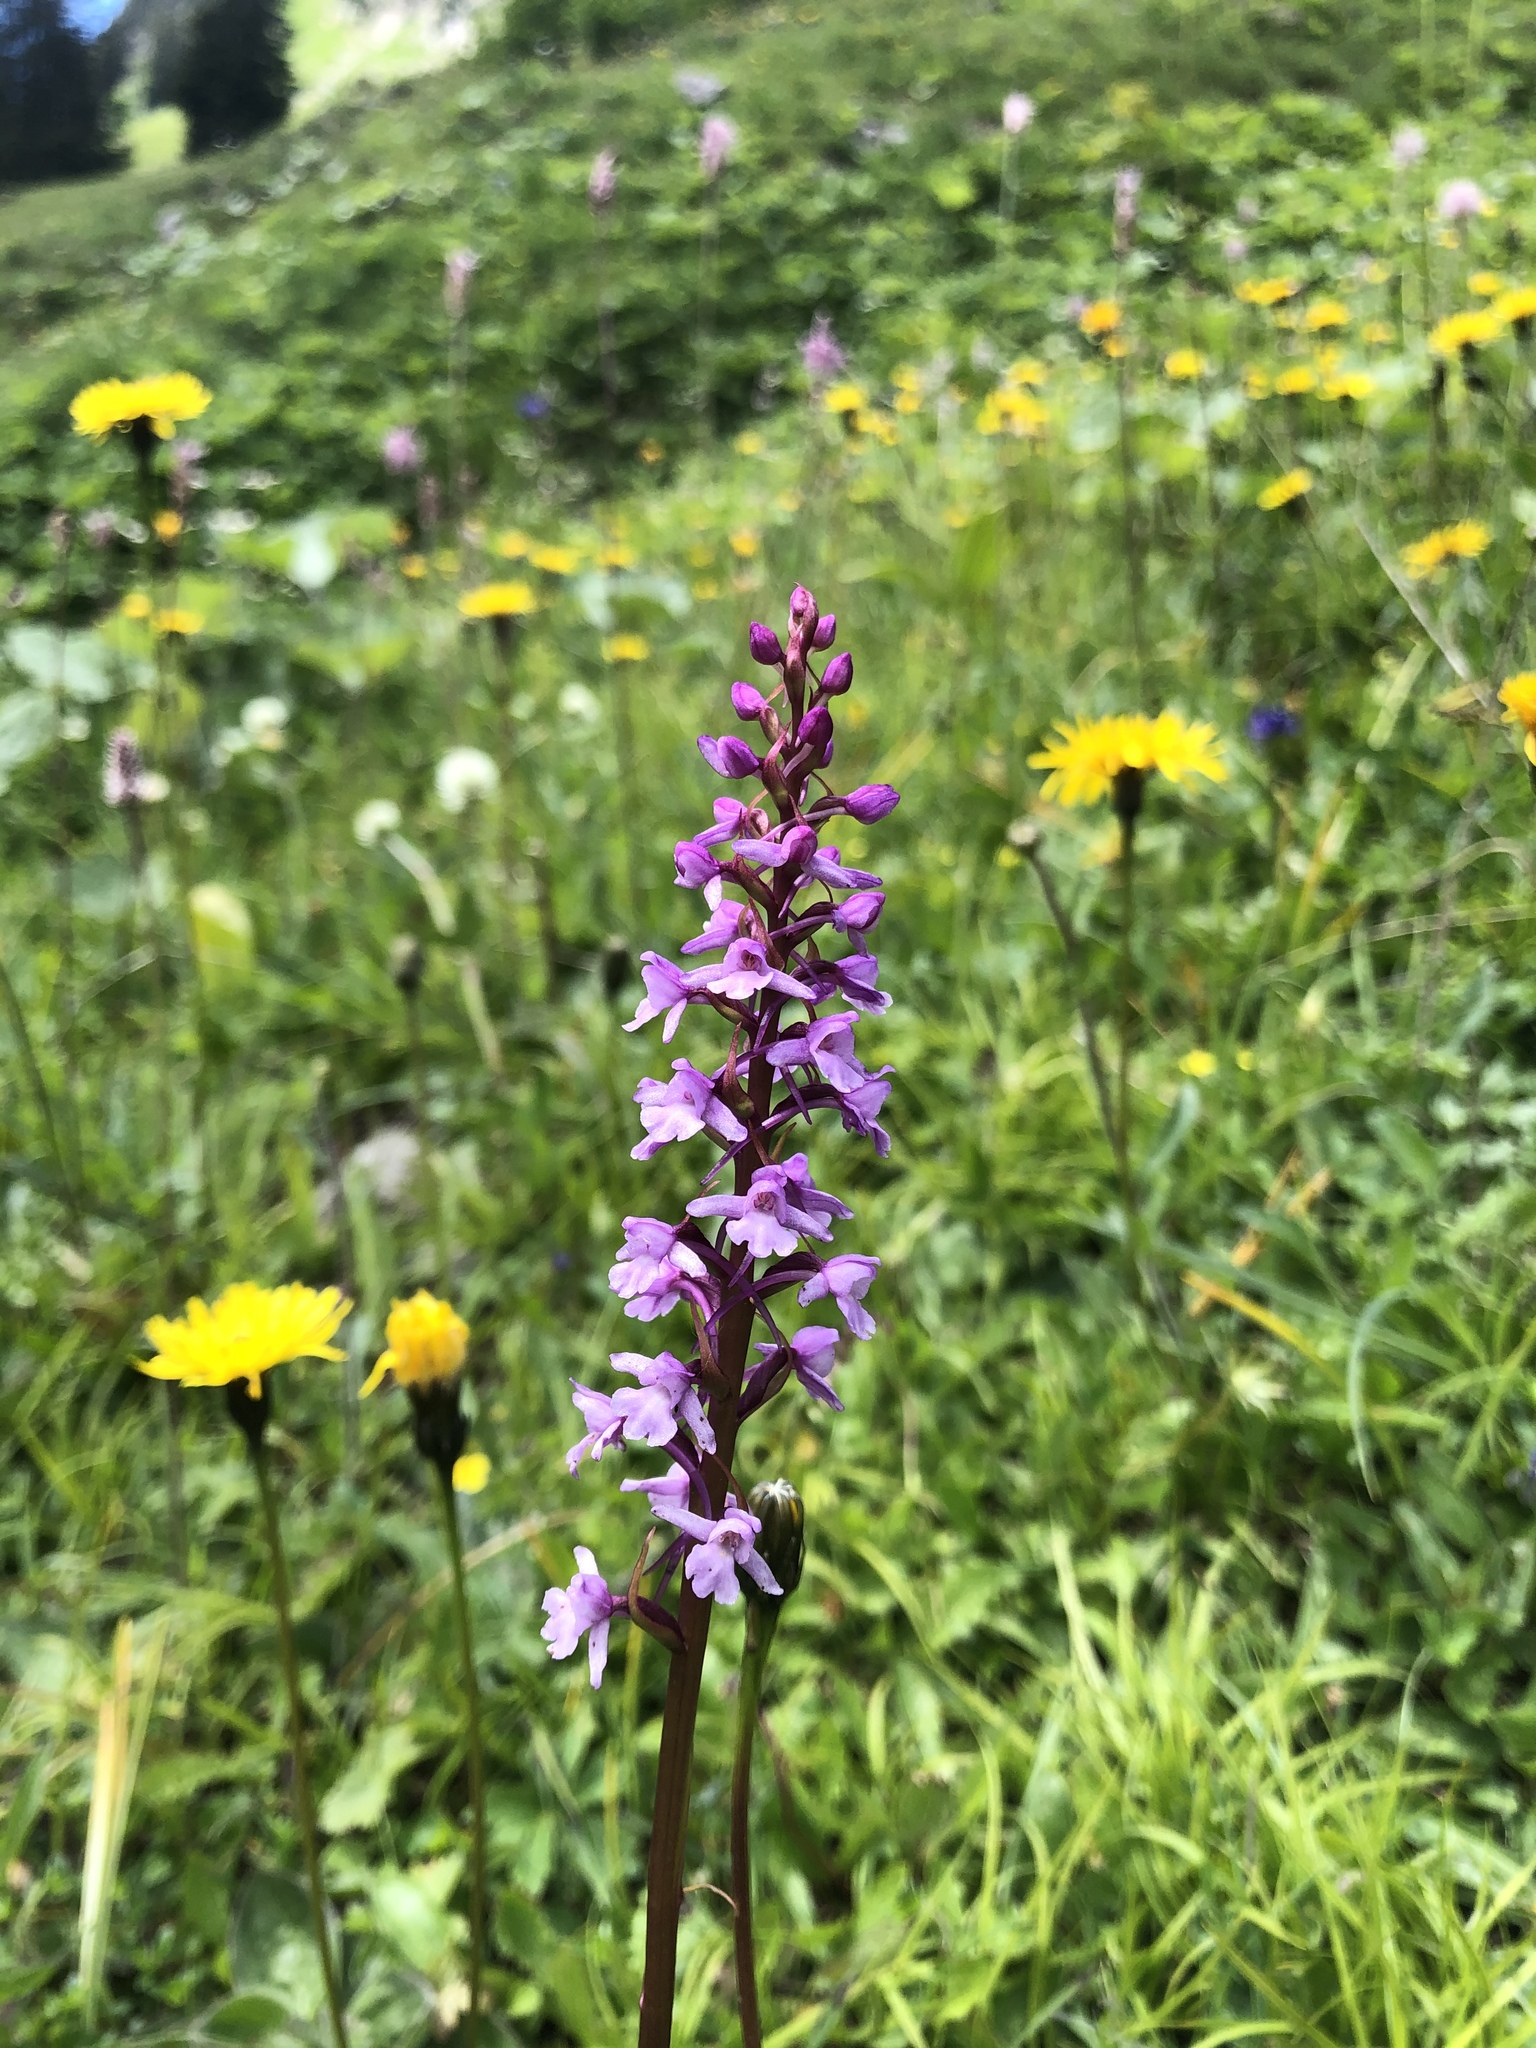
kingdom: Plantae
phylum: Tracheophyta
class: Liliopsida
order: Asparagales
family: Orchidaceae
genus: Gymnadenia
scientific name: Gymnadenia conopsea
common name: Fragrant orchid
